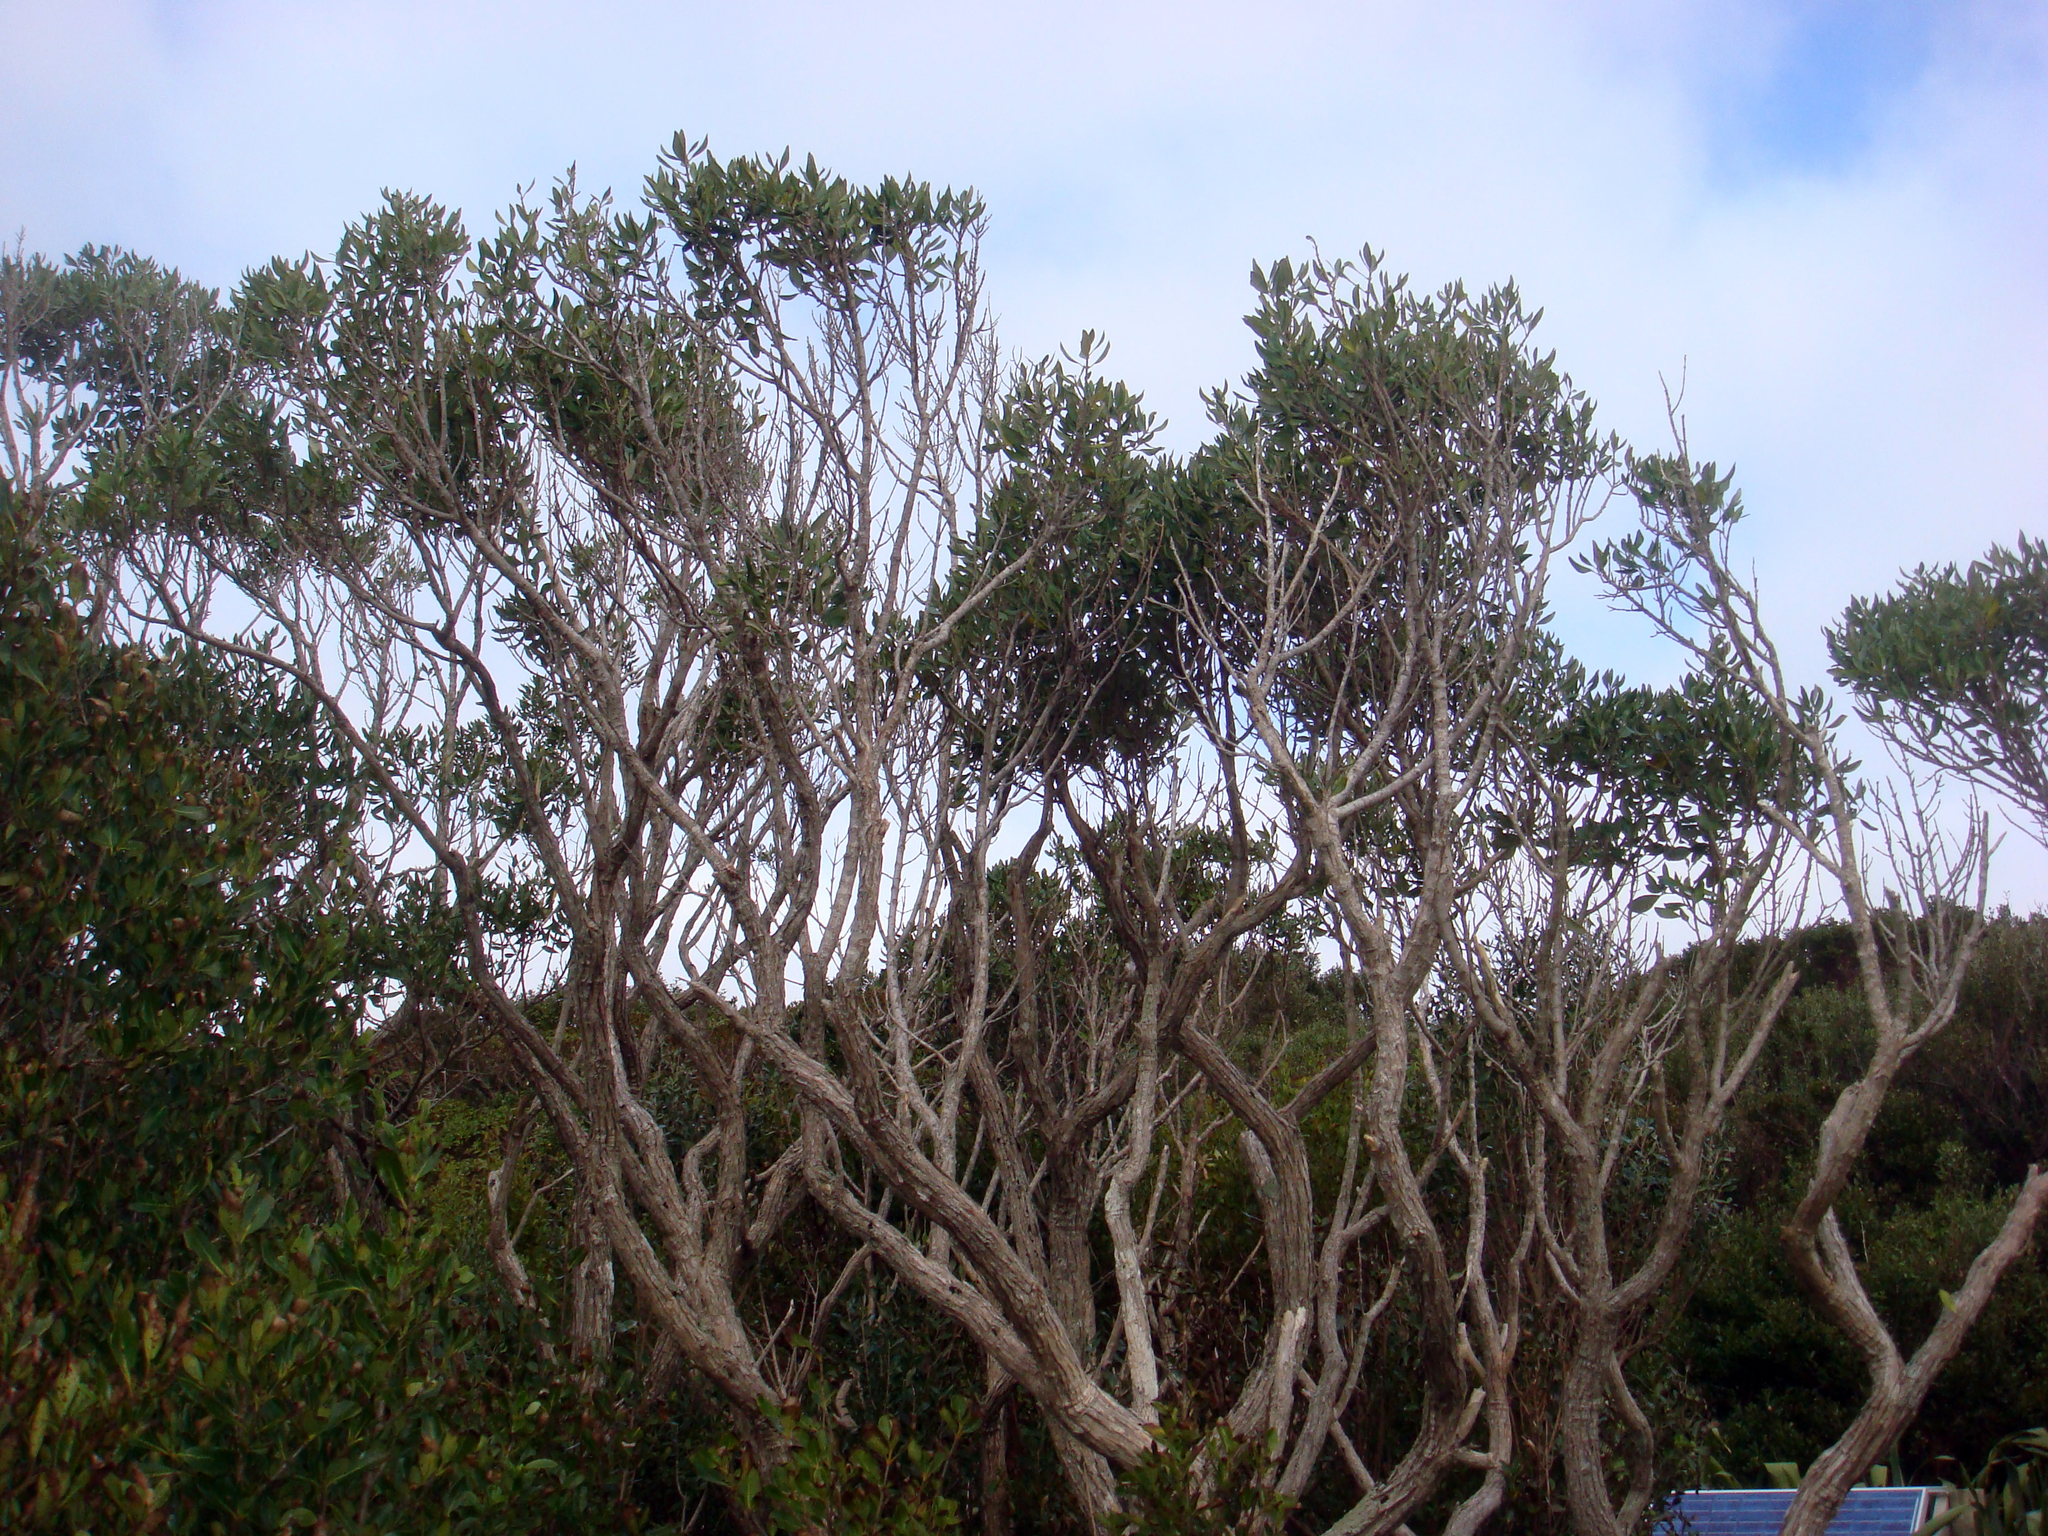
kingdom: Plantae
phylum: Tracheophyta
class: Magnoliopsida
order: Asterales
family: Asteraceae
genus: Olearia
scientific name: Olearia telmatica
